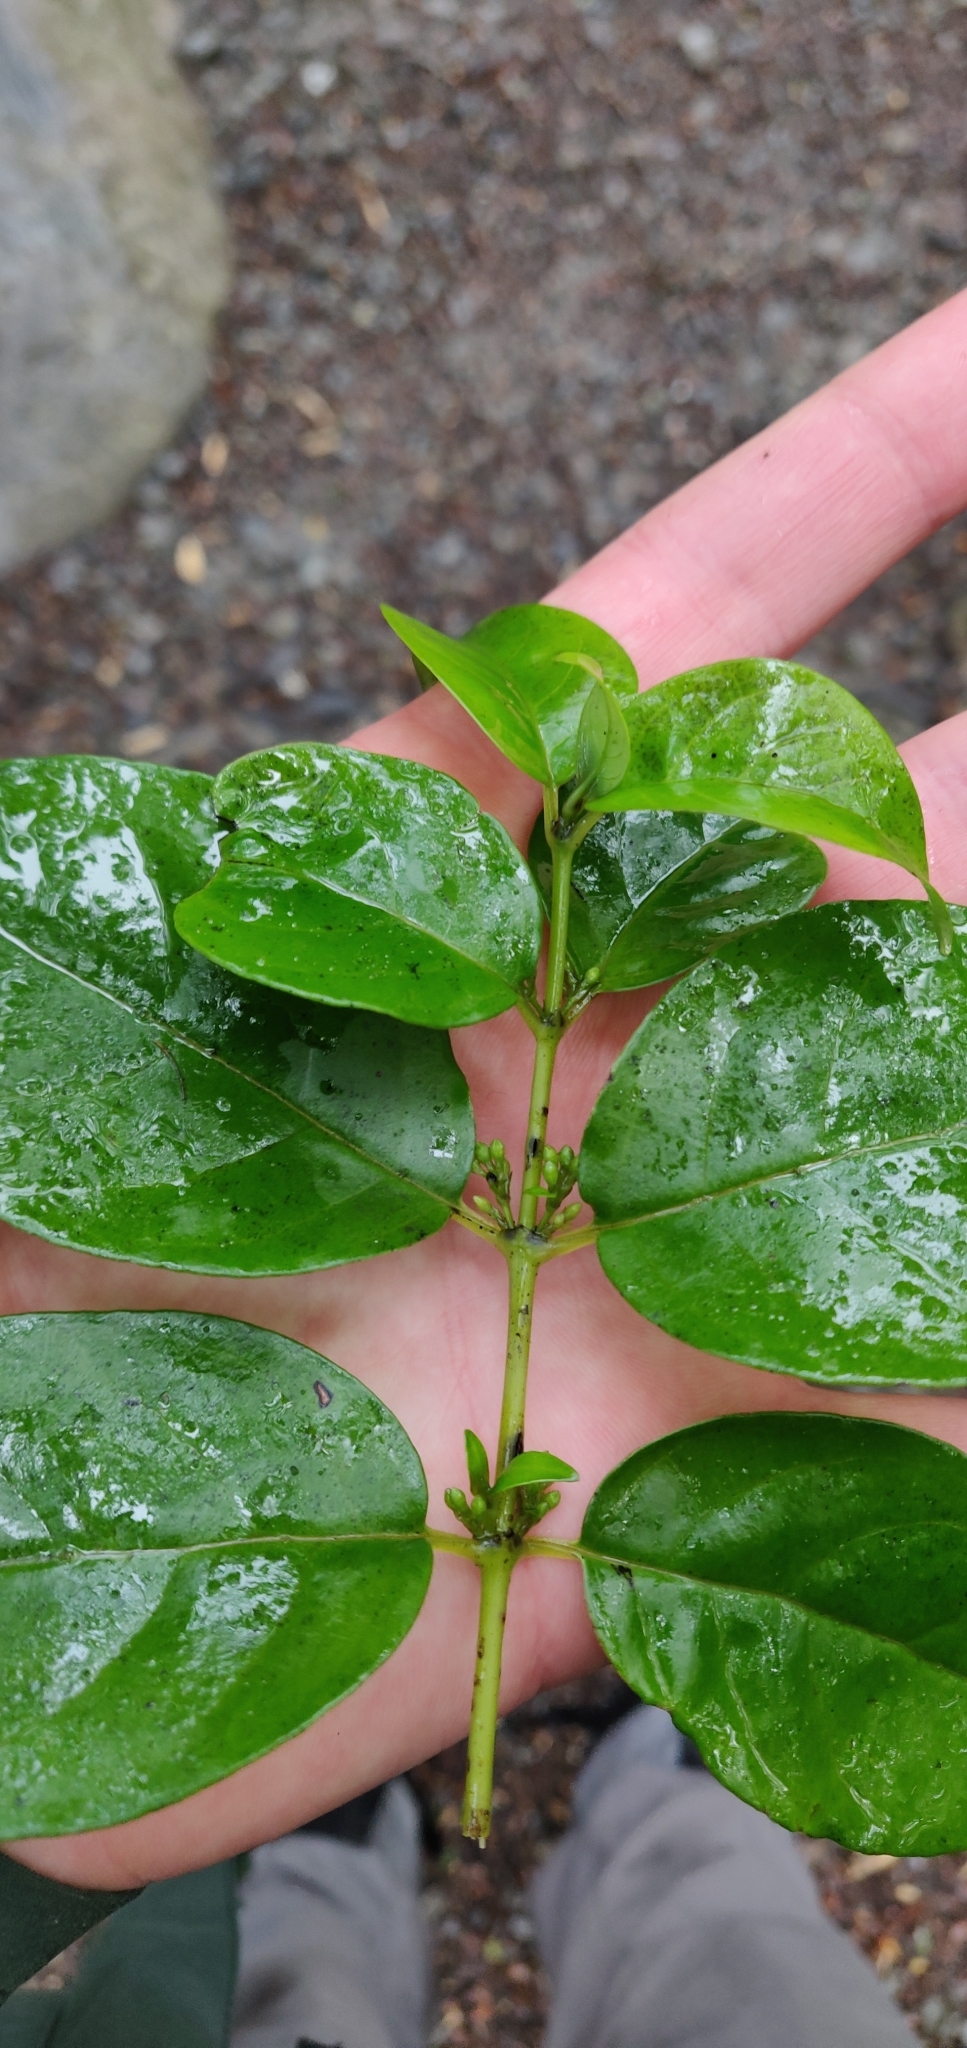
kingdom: Plantae
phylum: Tracheophyta
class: Magnoliopsida
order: Gentianales
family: Loganiaceae
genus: Geniostoma
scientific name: Geniostoma ligustrifolium
